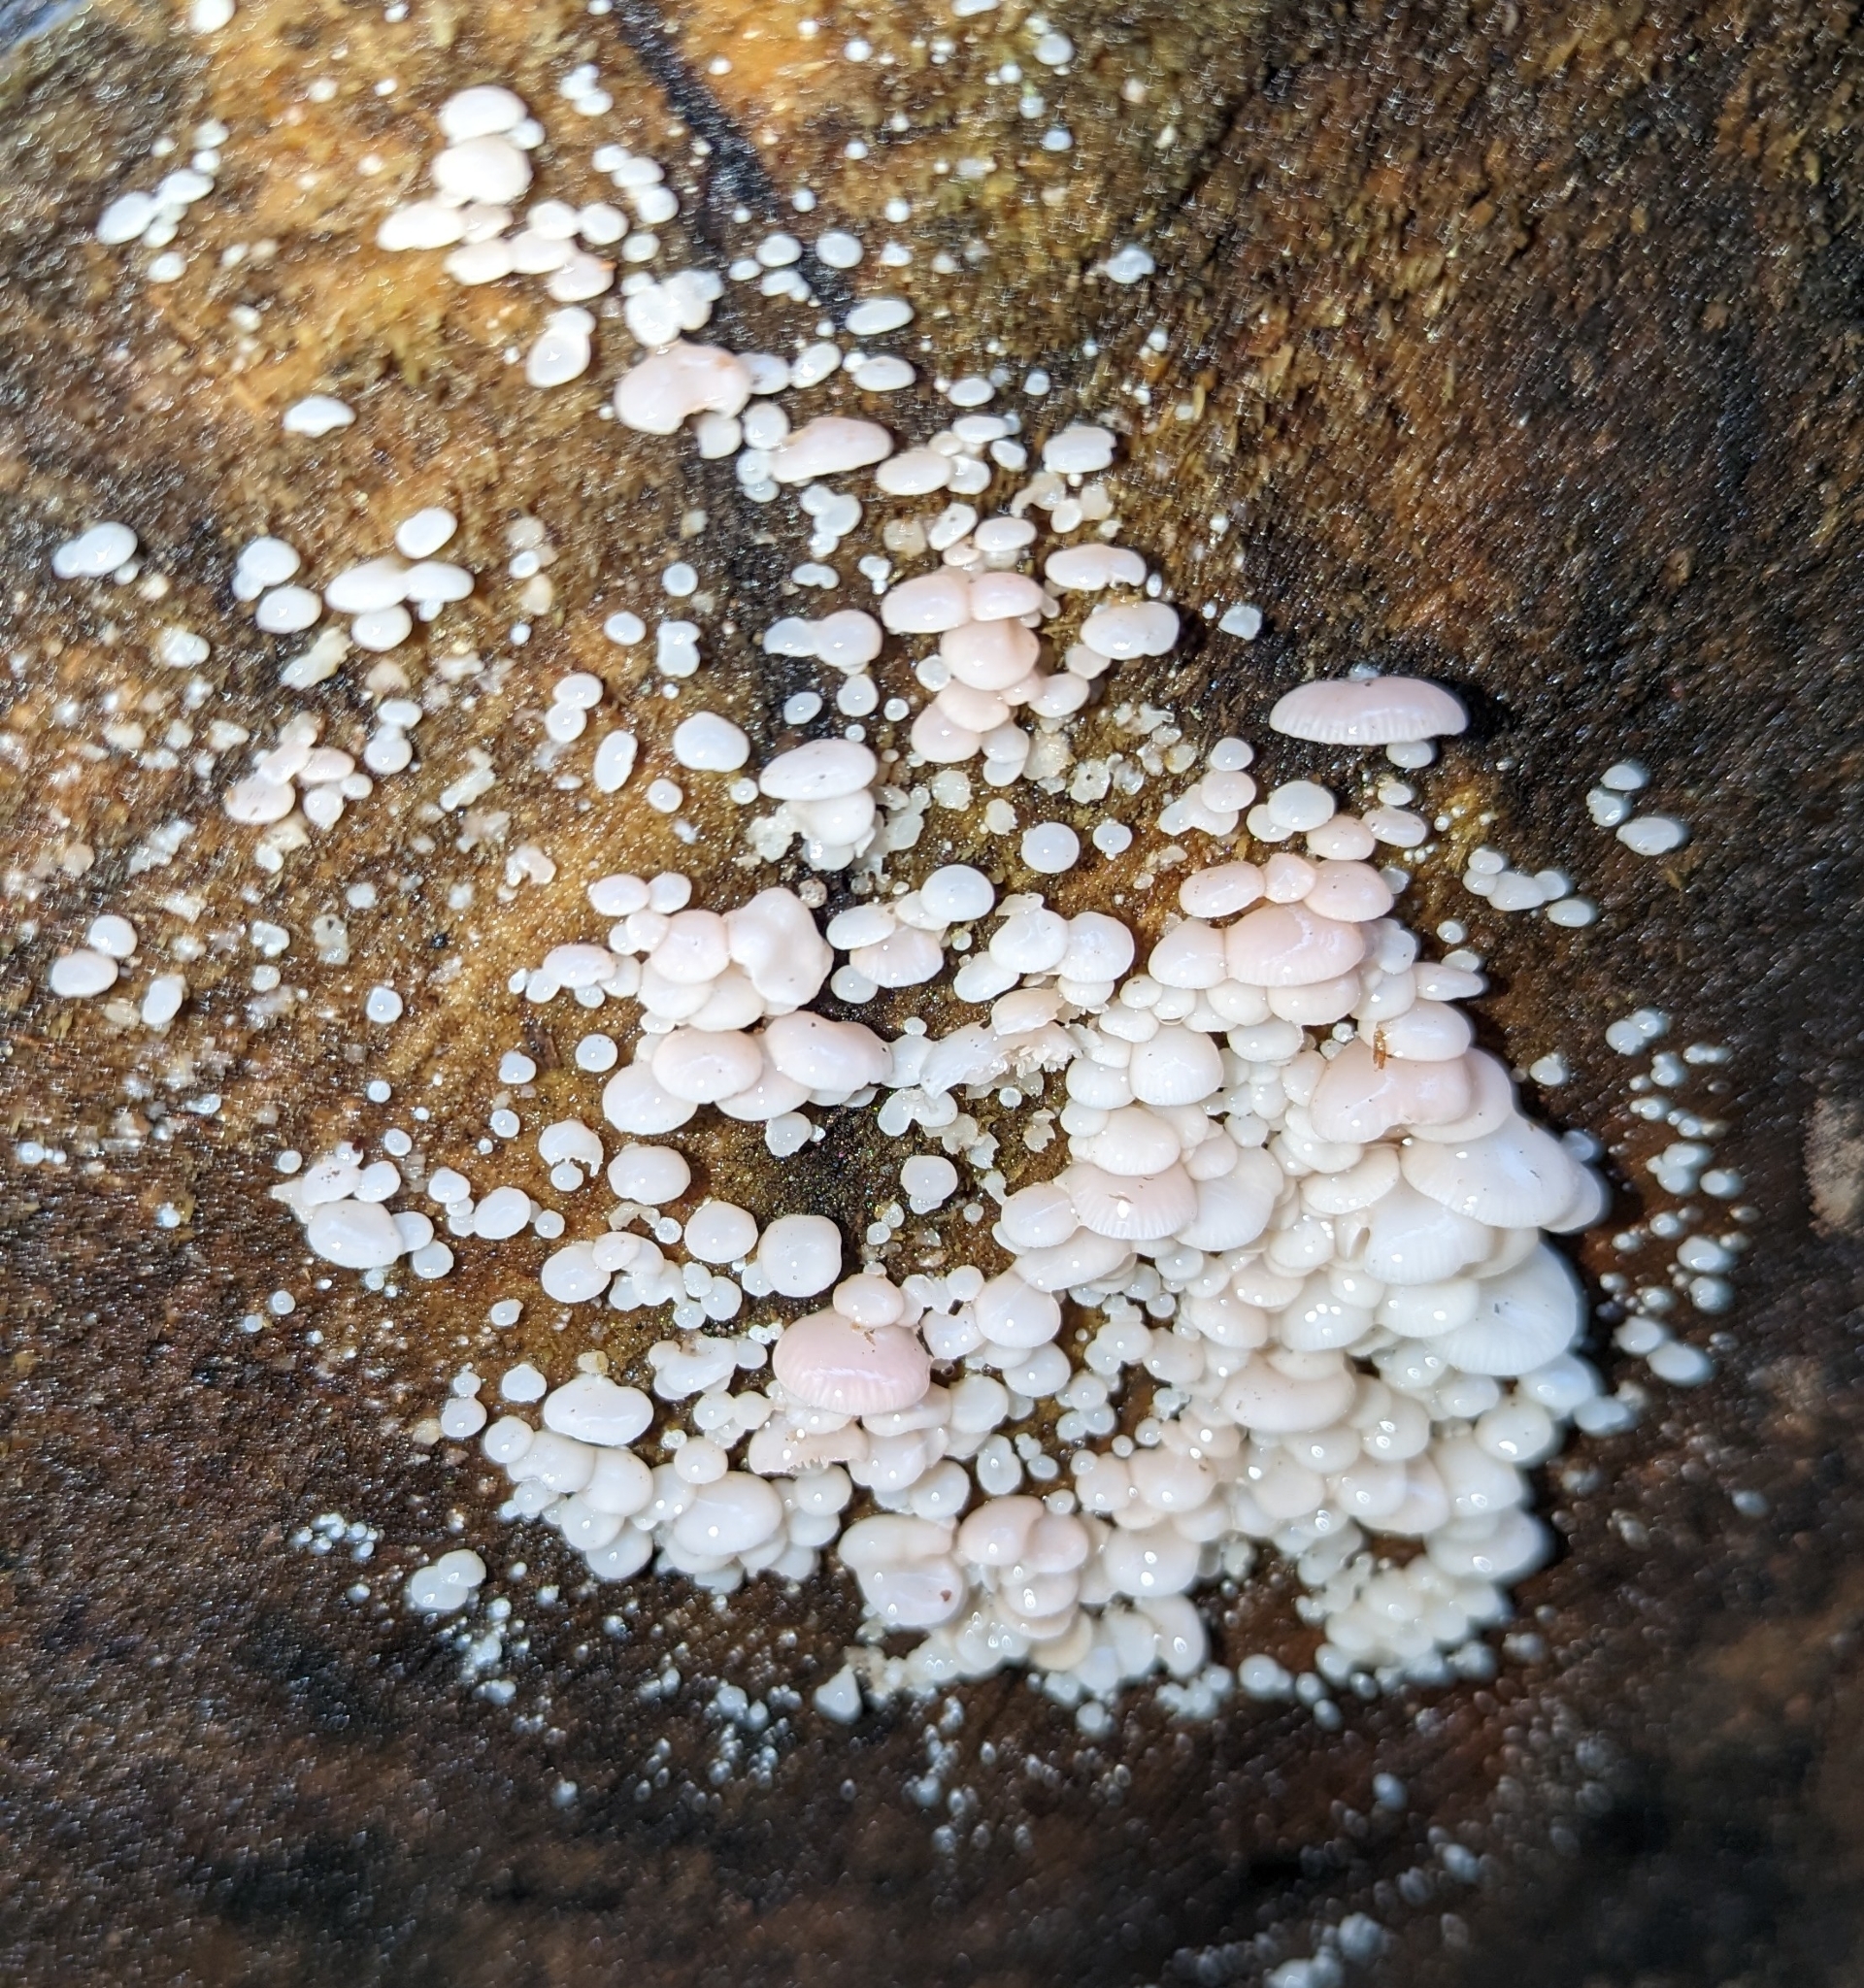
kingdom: Fungi
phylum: Basidiomycota
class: Agaricomycetes
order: Agaricales
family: Mycenaceae
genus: Panellus
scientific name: Panellus longinquus
